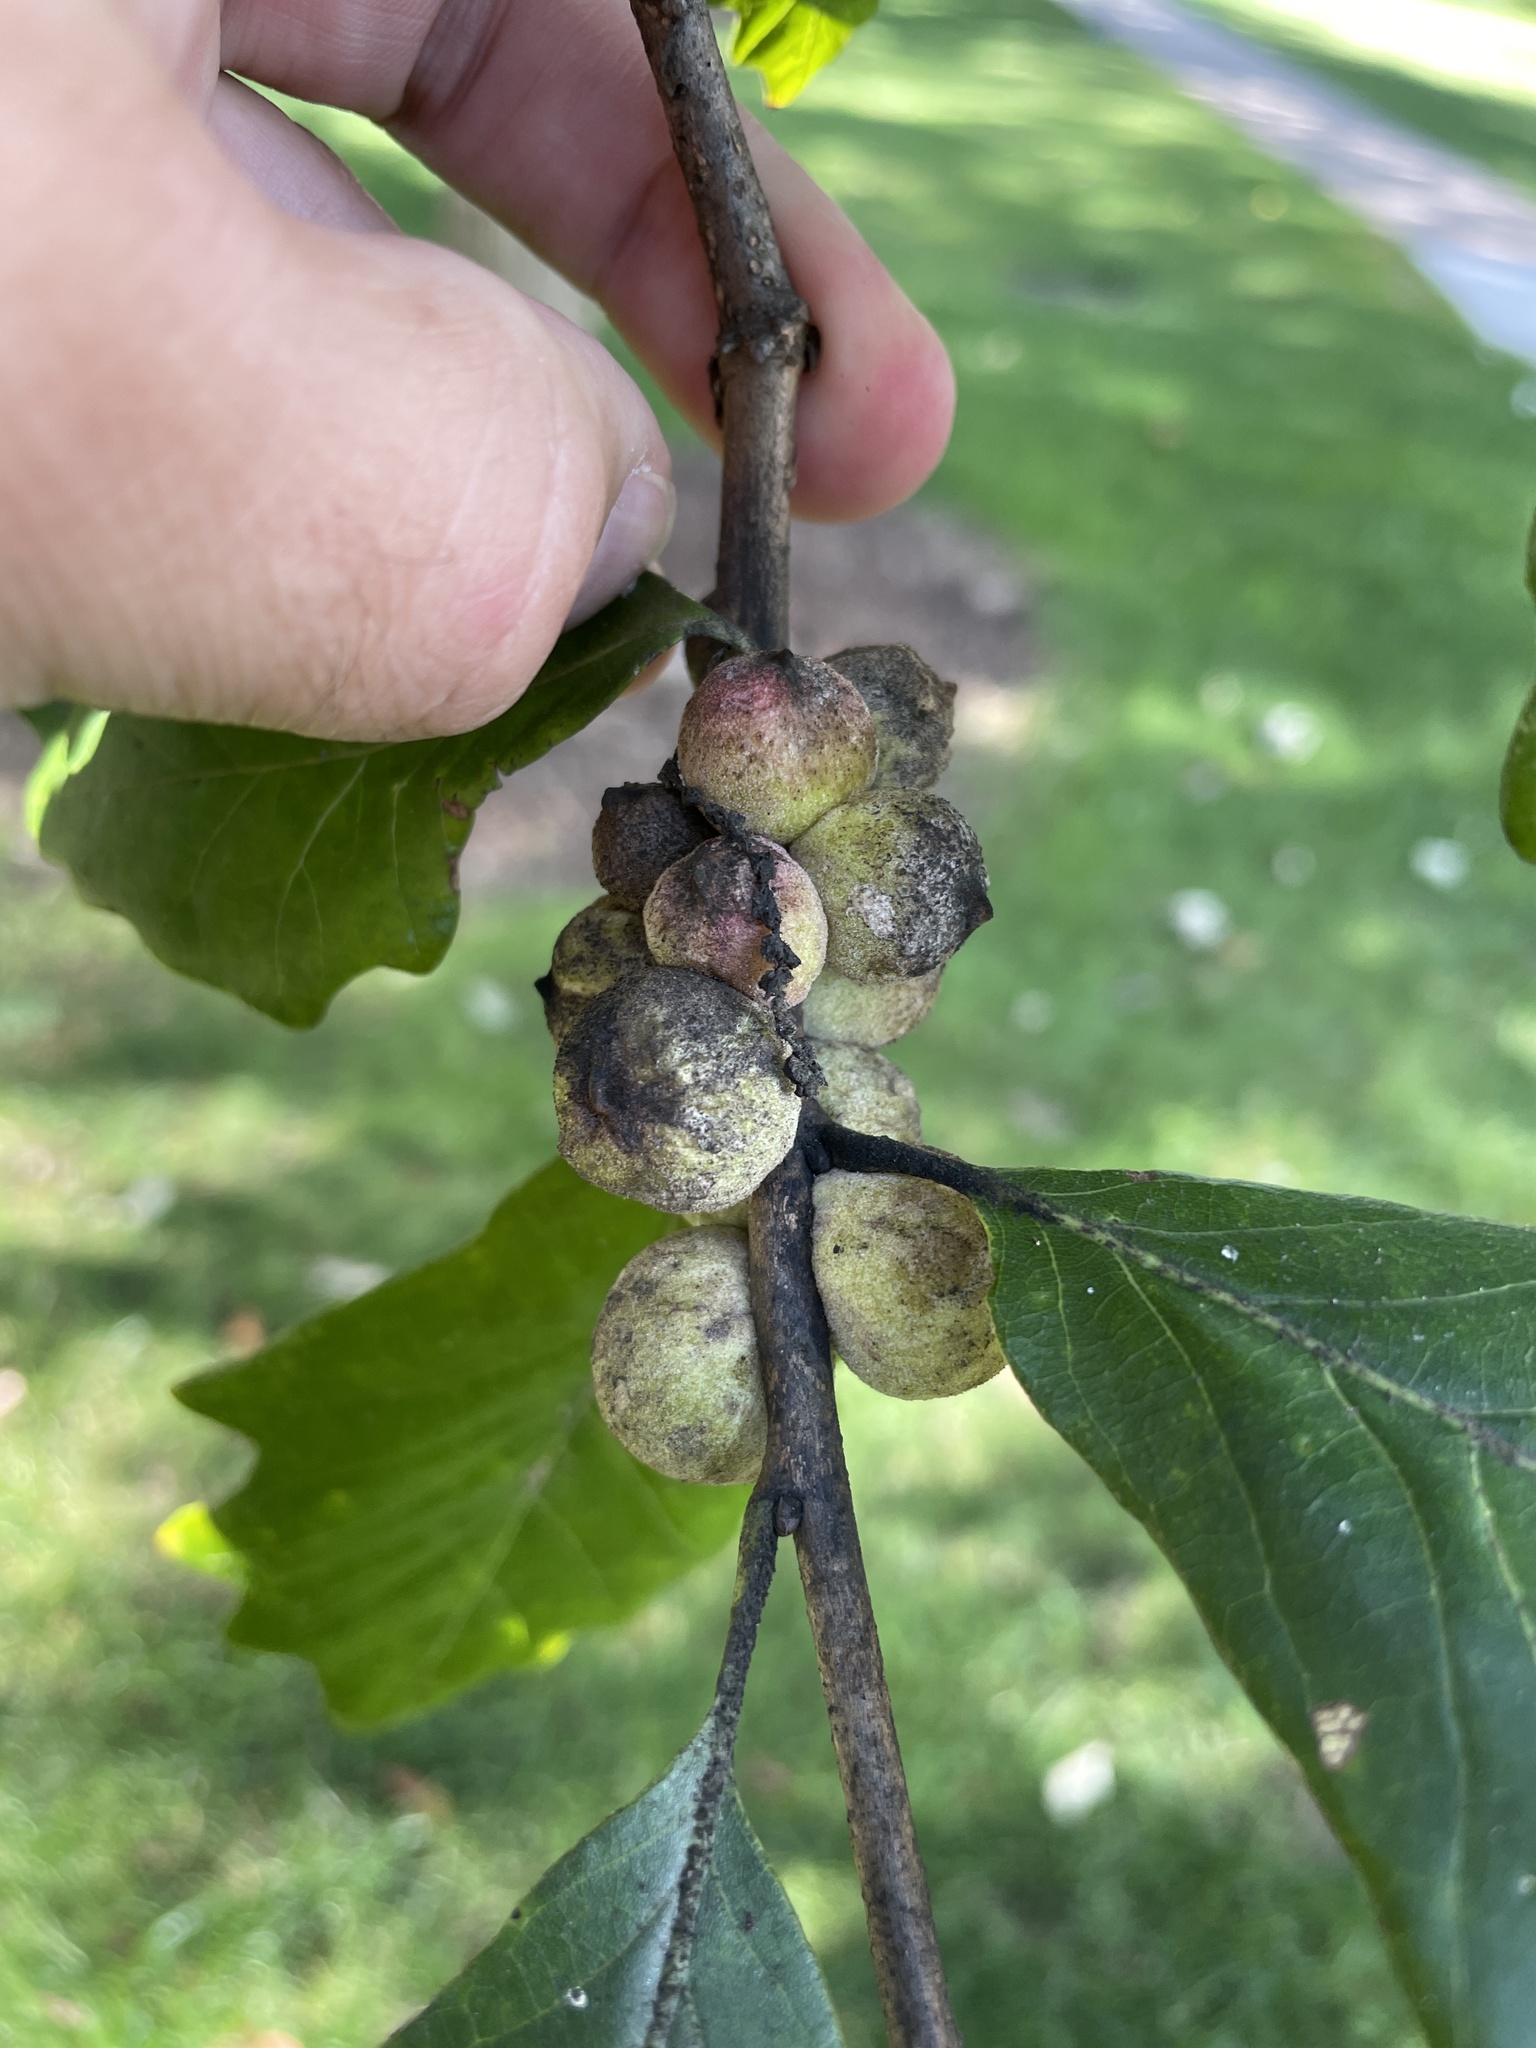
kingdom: Animalia
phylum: Arthropoda
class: Insecta
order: Hymenoptera
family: Cynipidae
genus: Disholcaspis
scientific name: Disholcaspis
